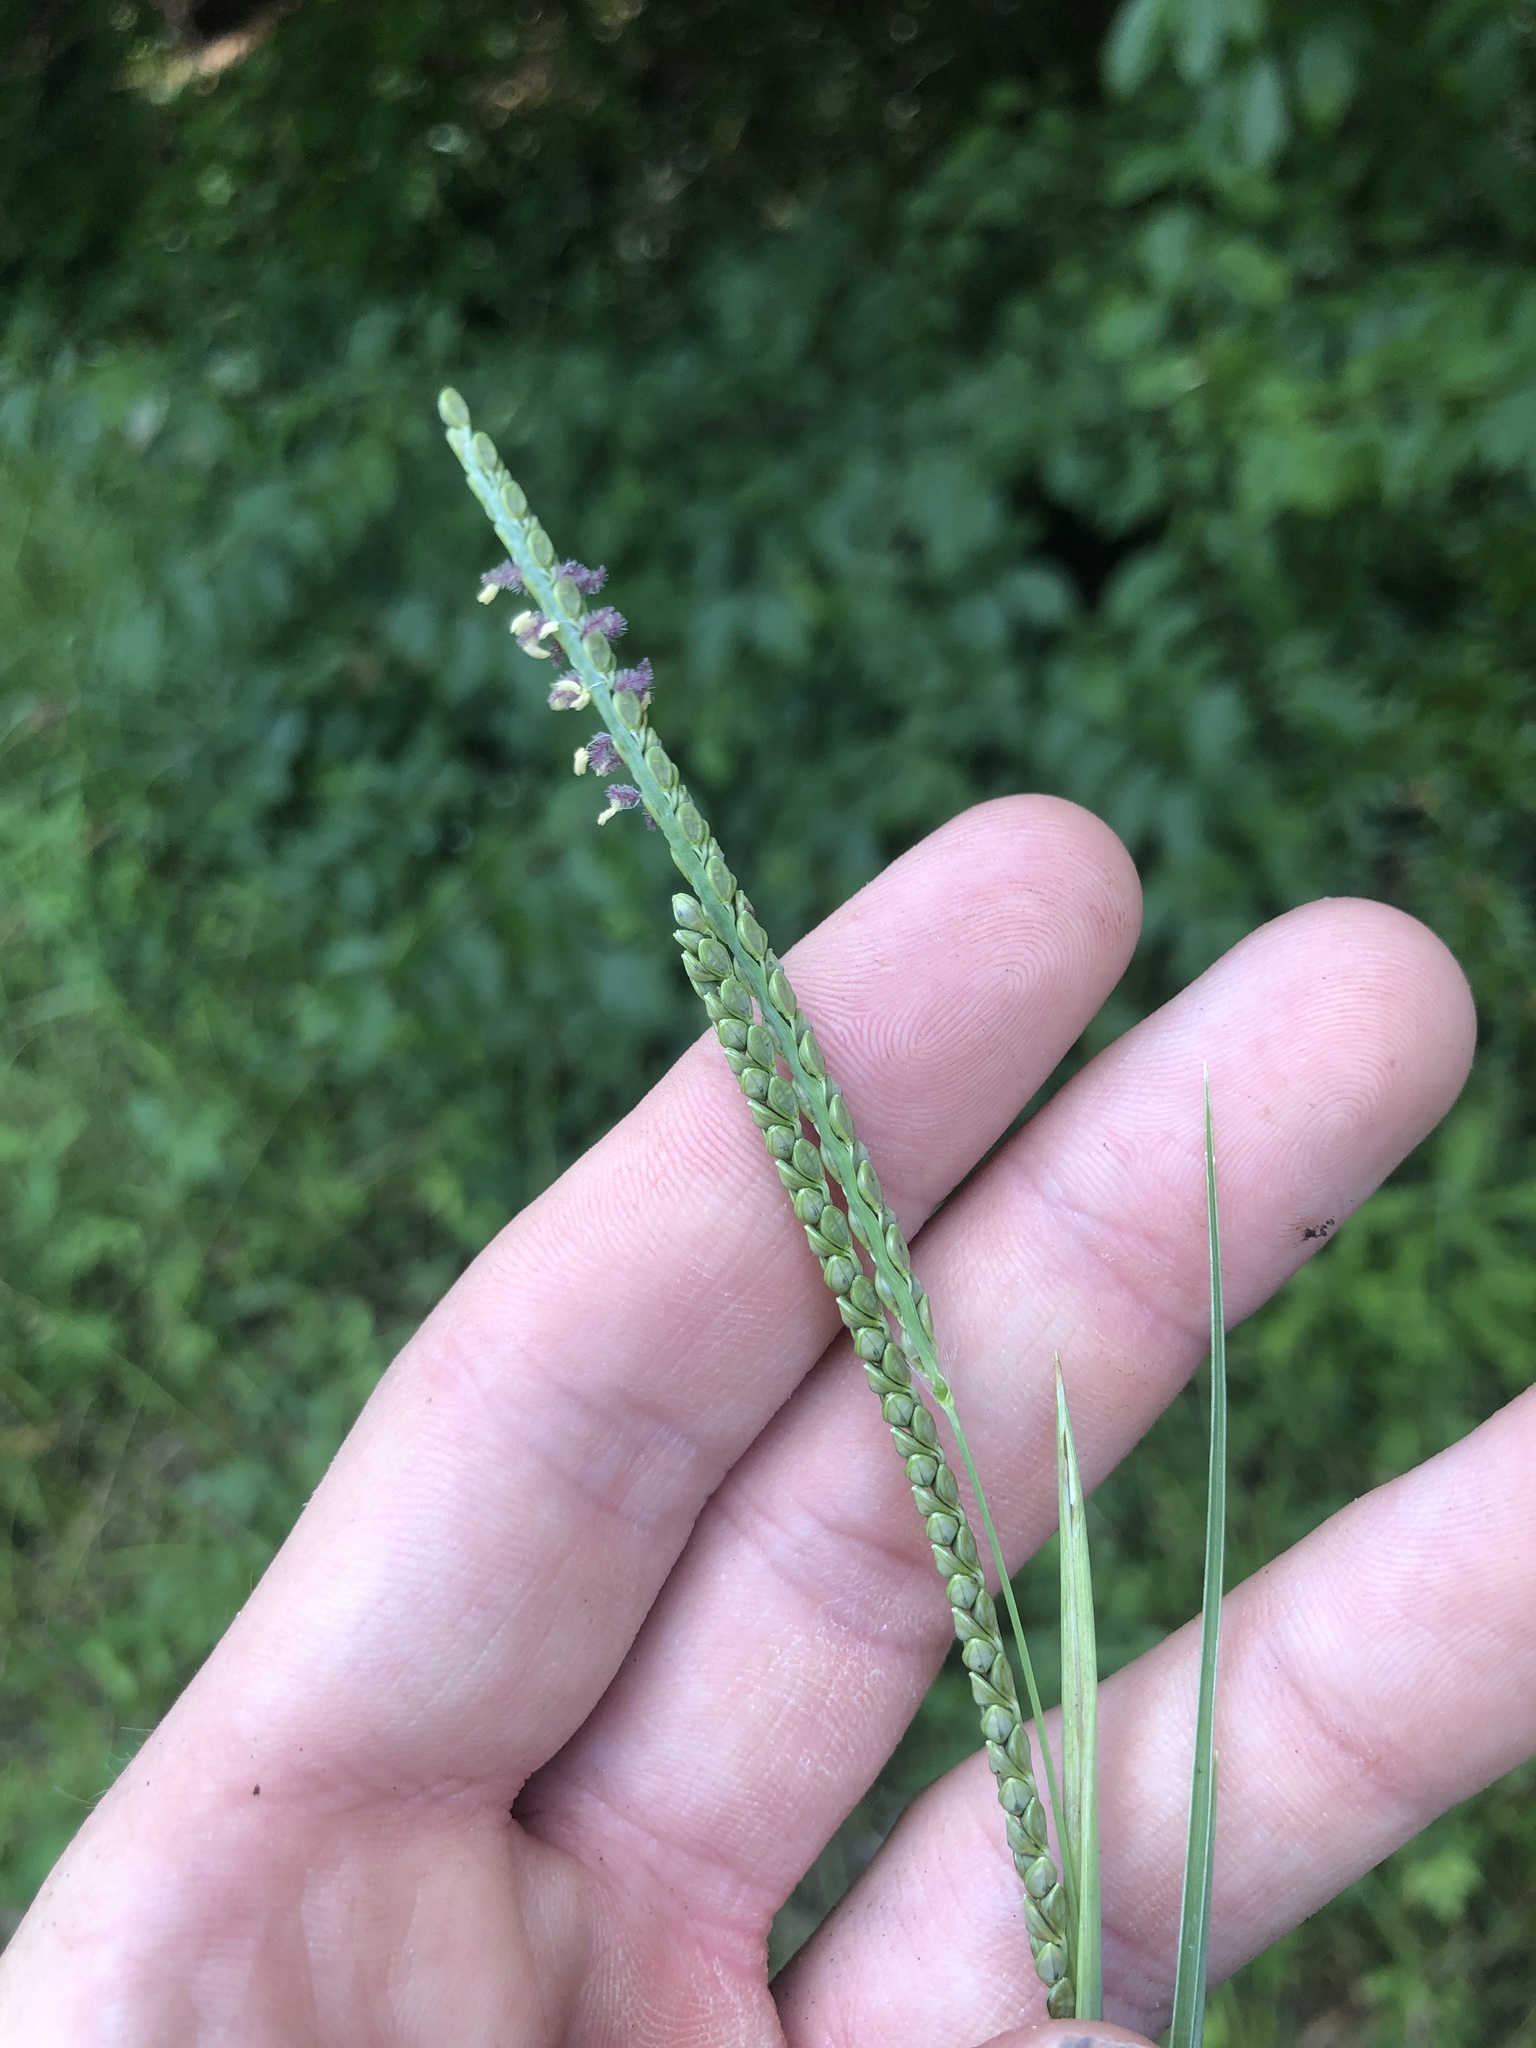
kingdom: Plantae
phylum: Tracheophyta
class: Liliopsida
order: Poales
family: Poaceae
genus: Paspalum
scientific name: Paspalum plicatulum
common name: Top paspalum
